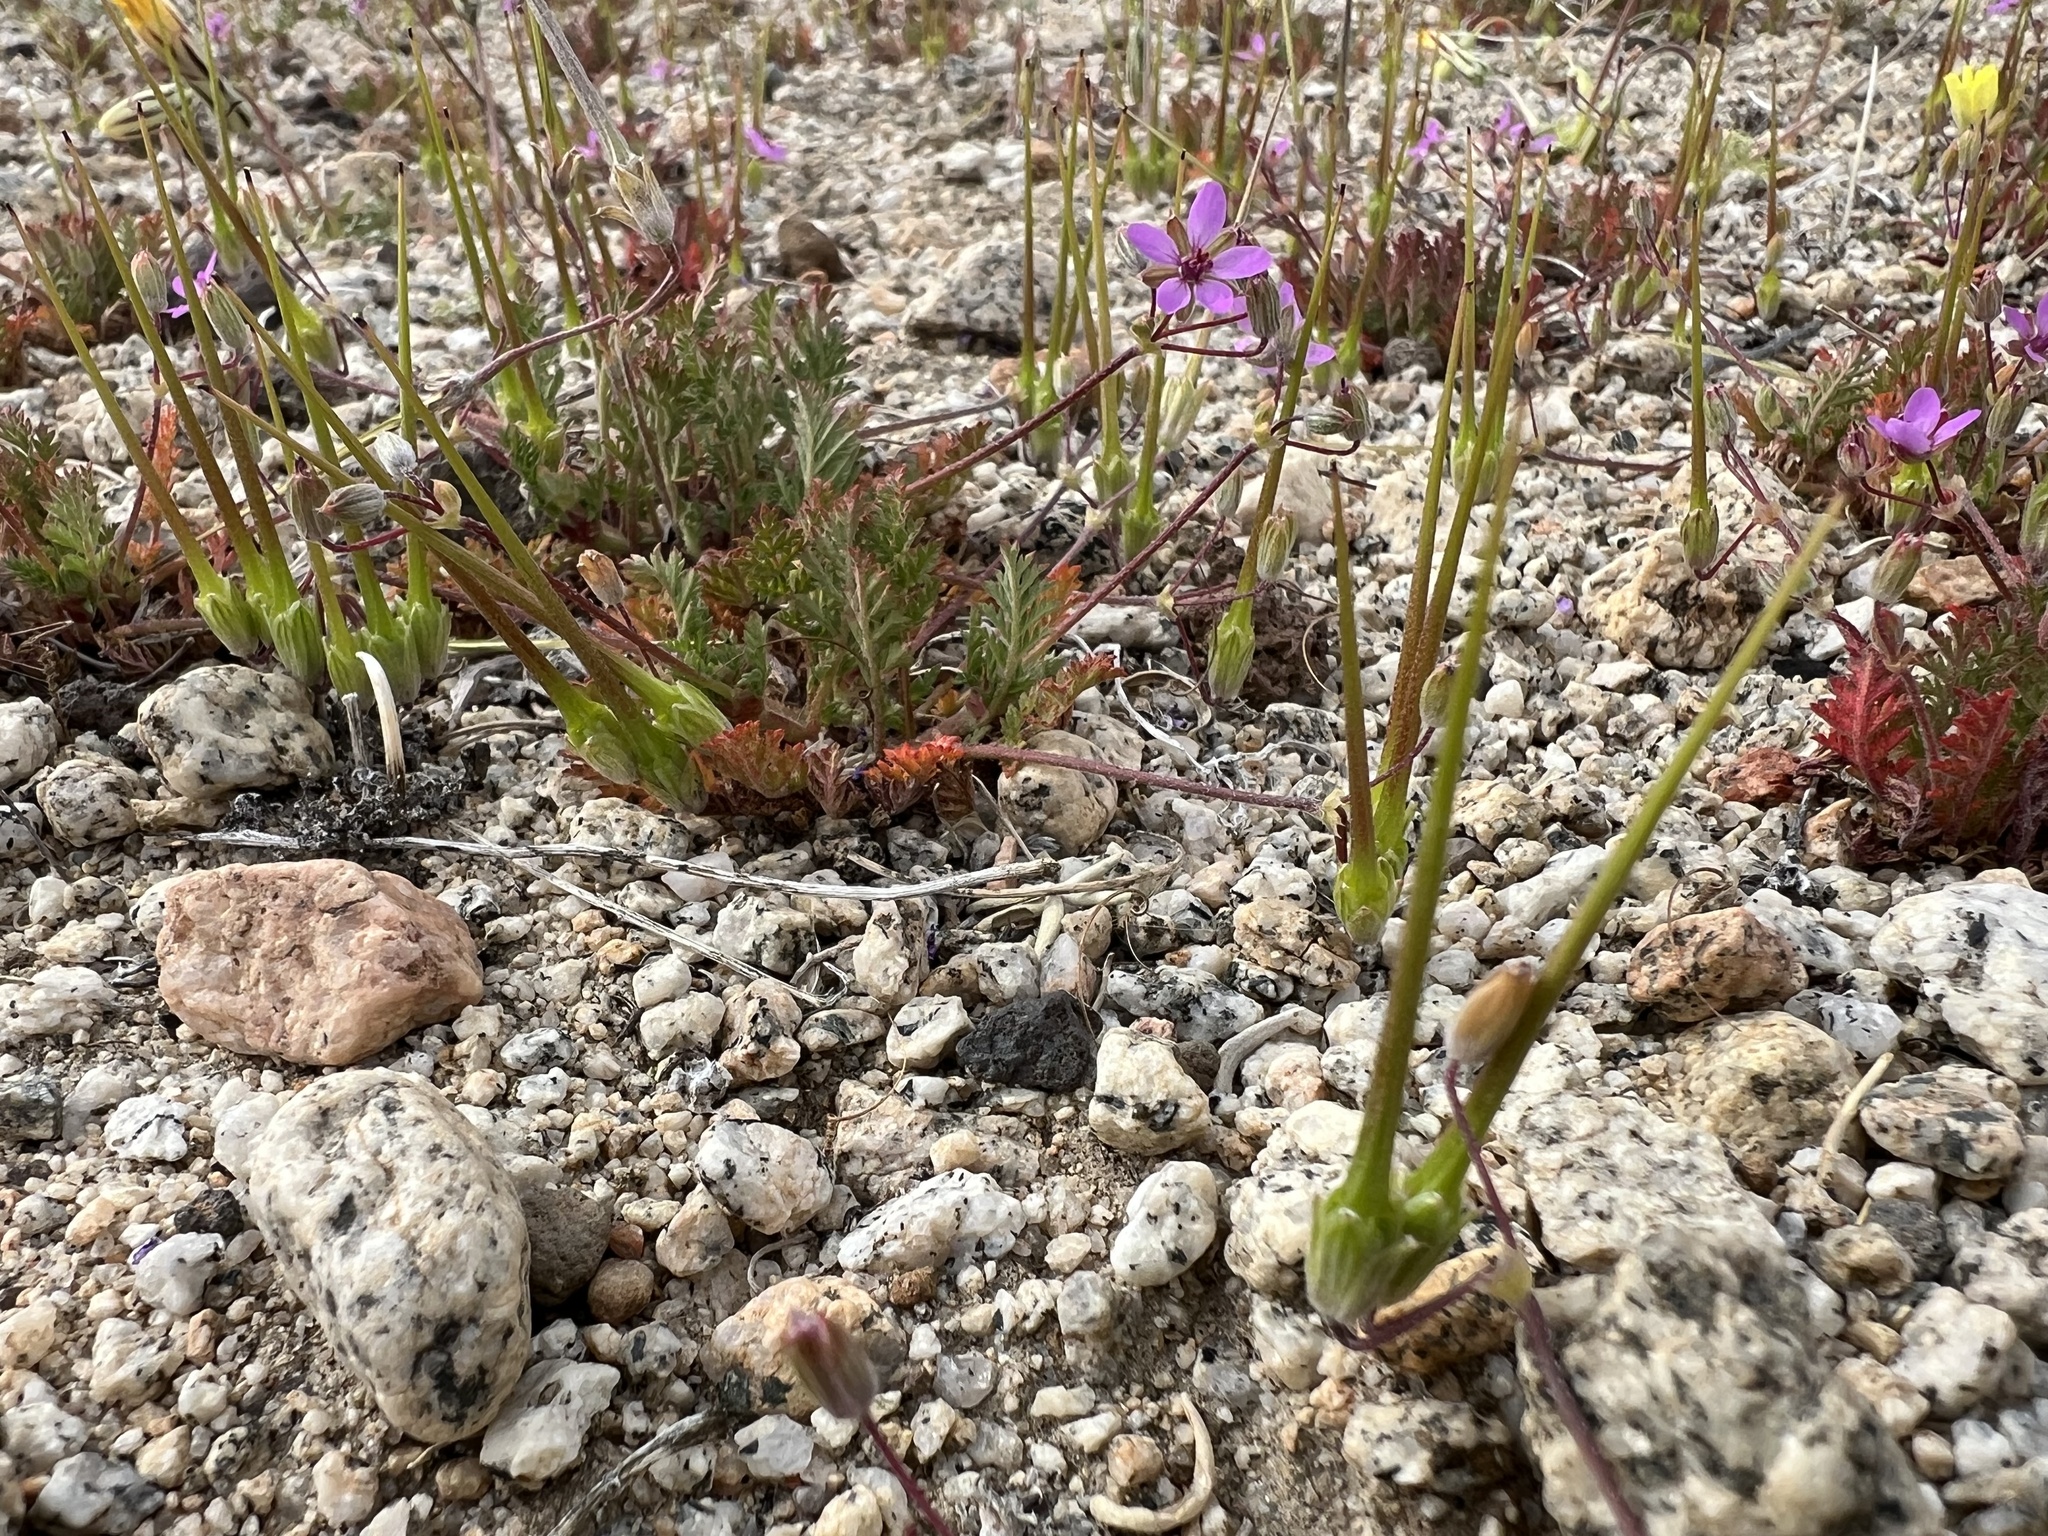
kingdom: Plantae
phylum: Tracheophyta
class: Magnoliopsida
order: Geraniales
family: Geraniaceae
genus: Erodium
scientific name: Erodium cicutarium
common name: Common stork's-bill
